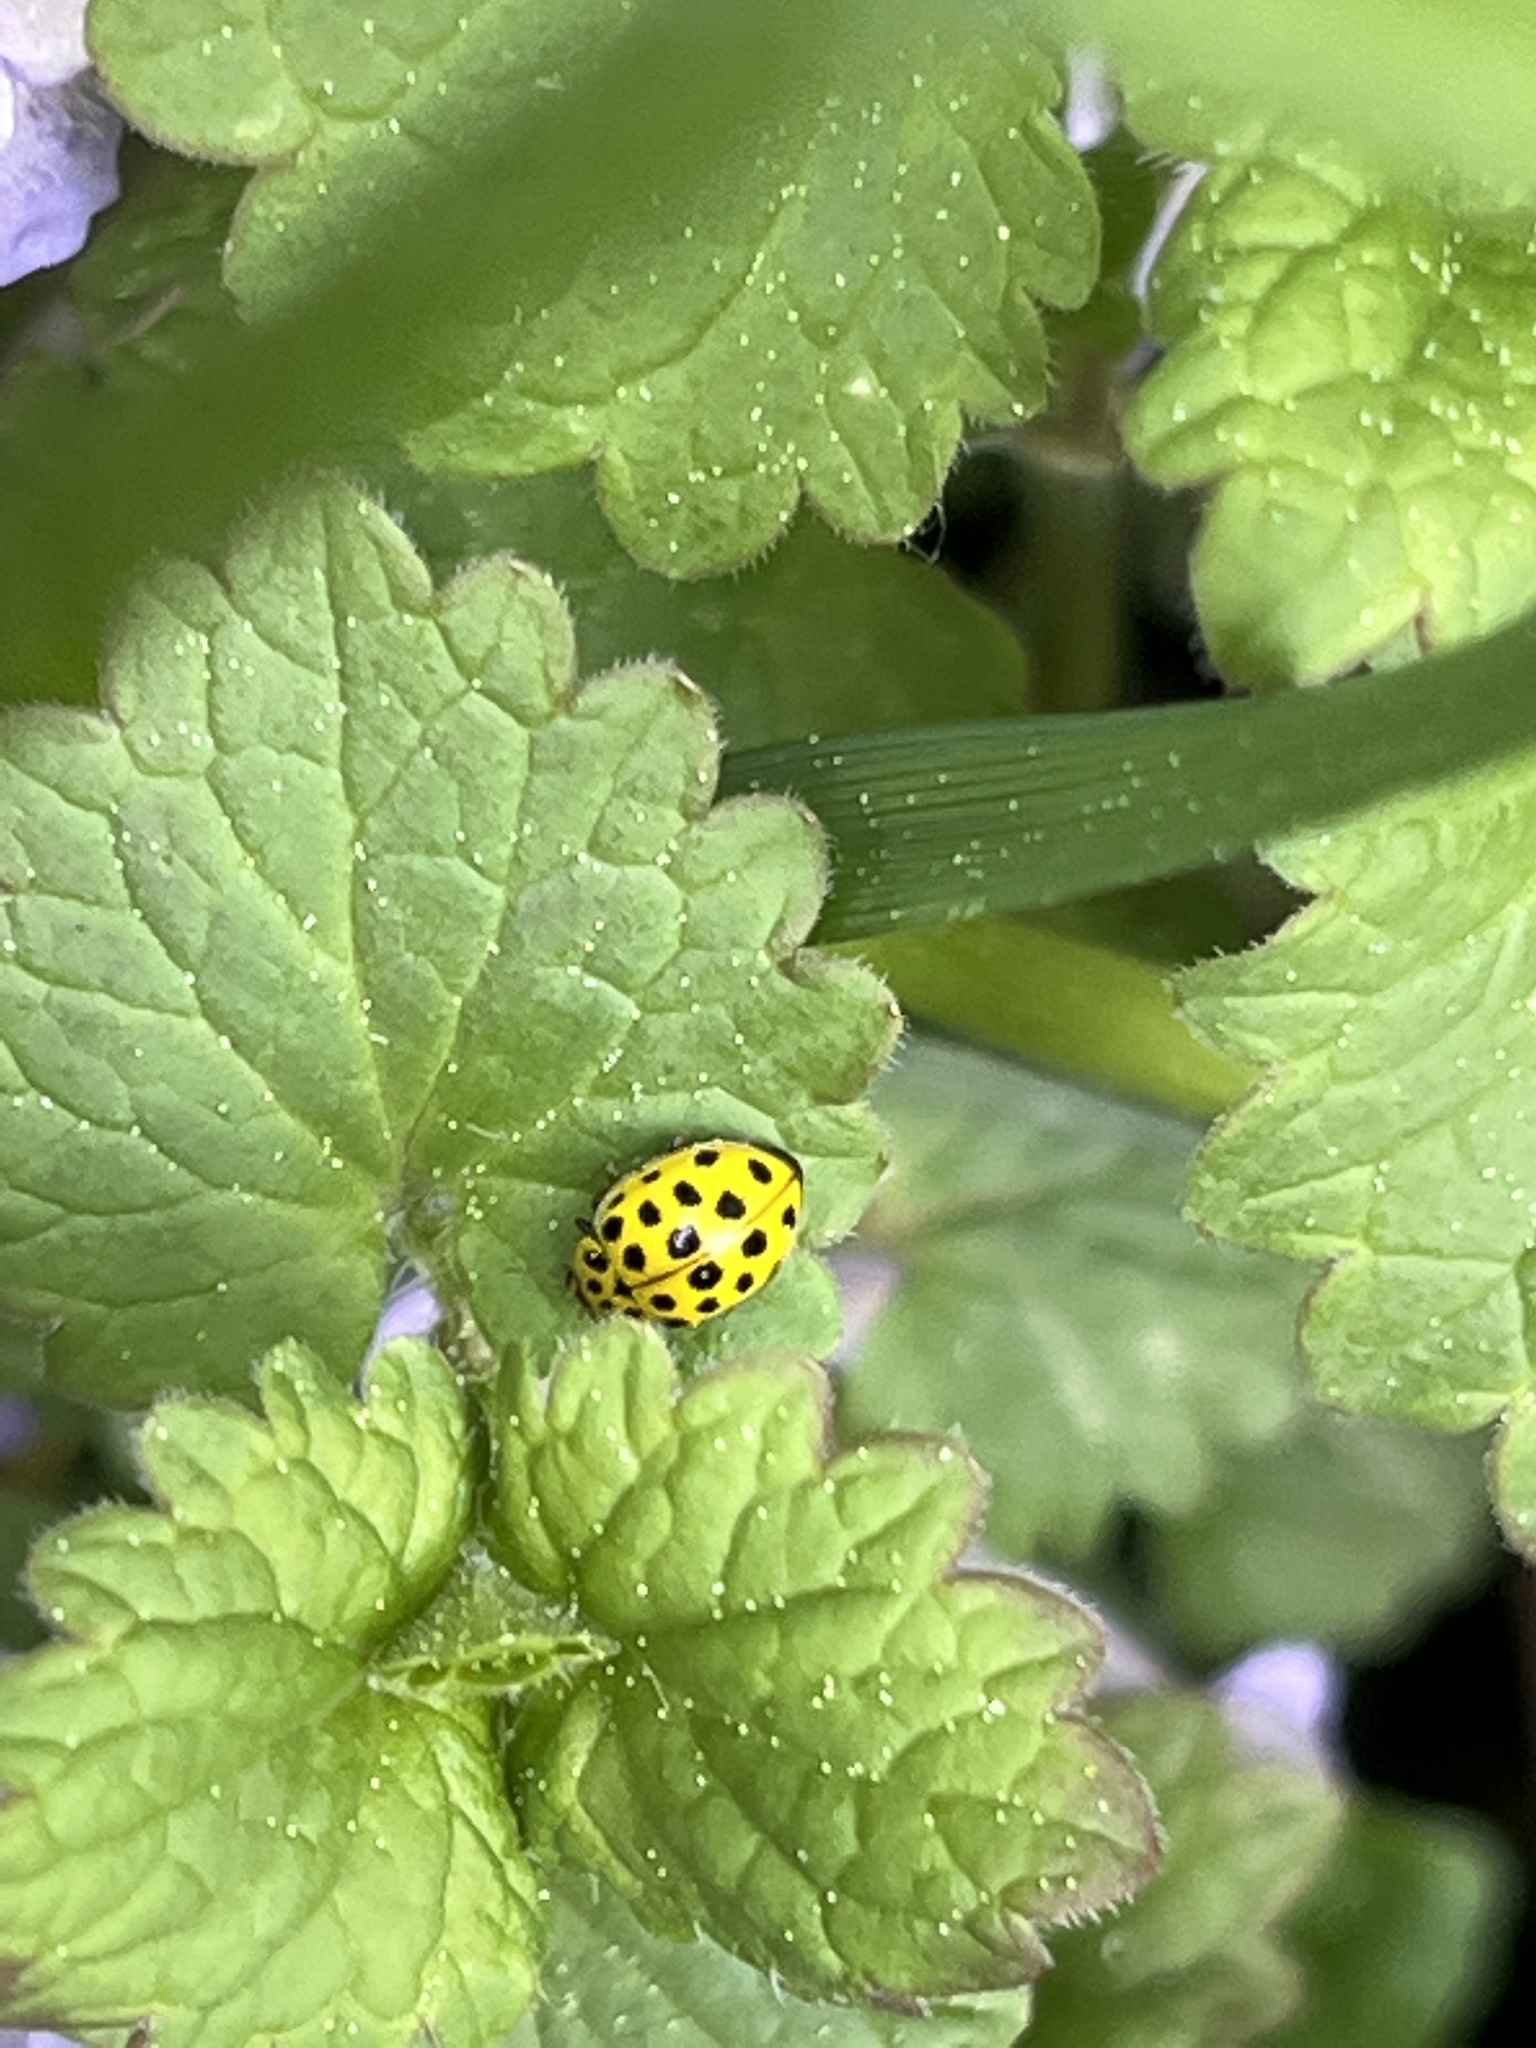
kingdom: Animalia
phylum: Arthropoda
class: Insecta
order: Coleoptera
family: Coccinellidae
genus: Psyllobora
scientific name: Psyllobora vigintiduopunctata
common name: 22-spot ladybird
